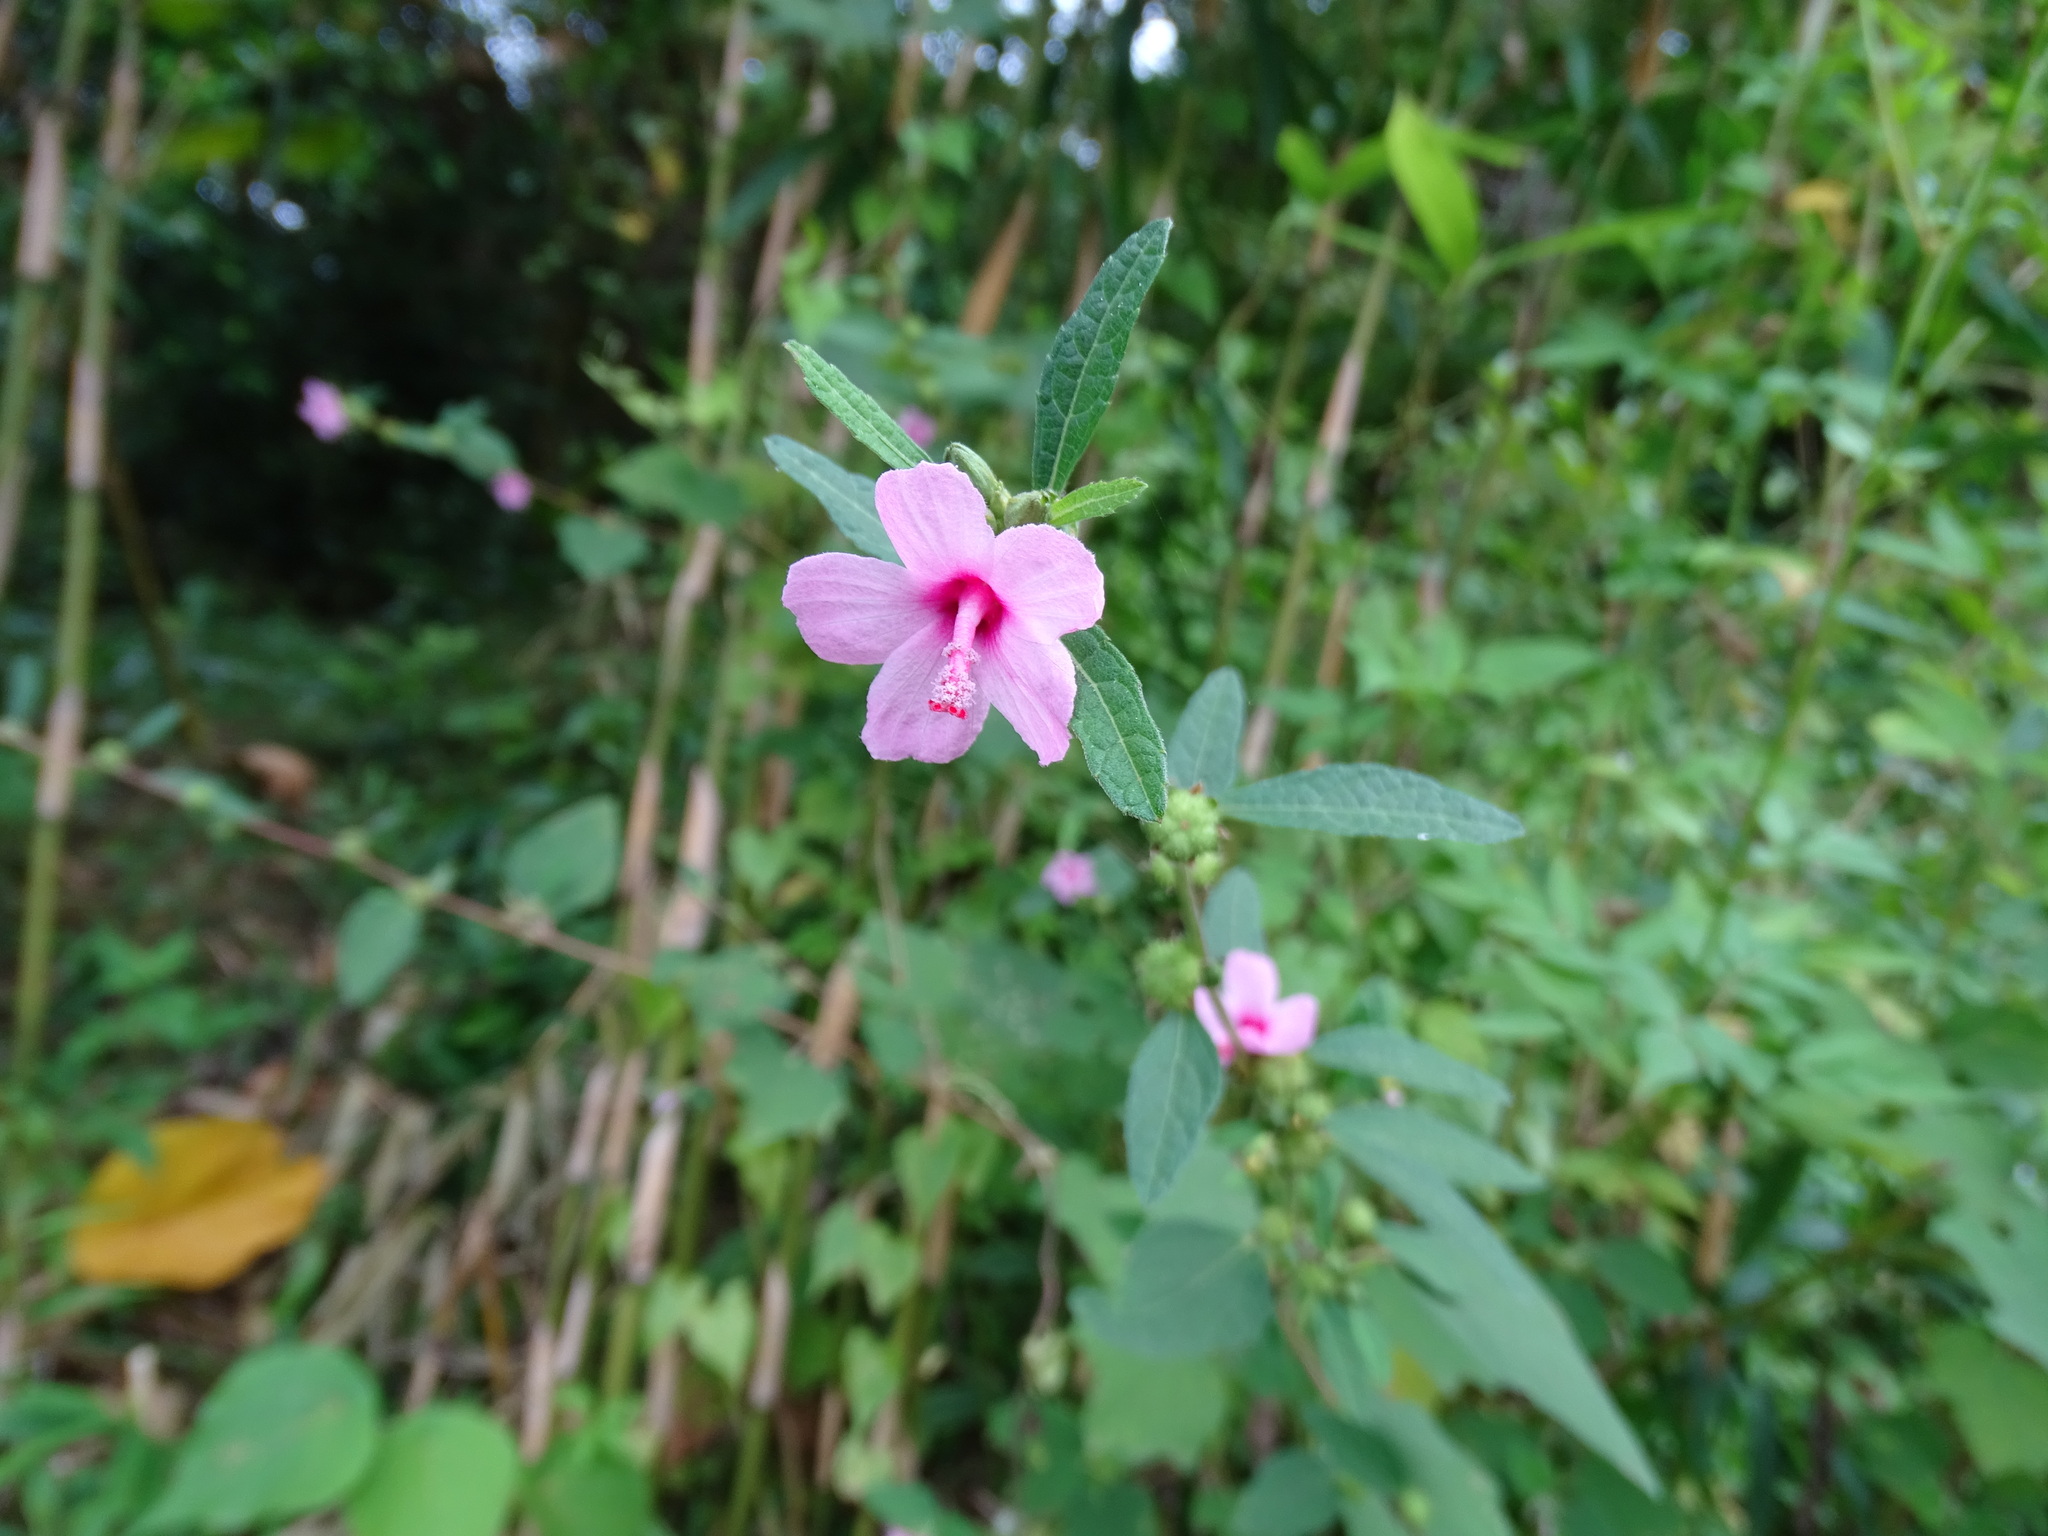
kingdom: Plantae
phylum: Tracheophyta
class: Magnoliopsida
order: Malvales
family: Malvaceae
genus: Urena
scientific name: Urena lobata
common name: Caesarweed
